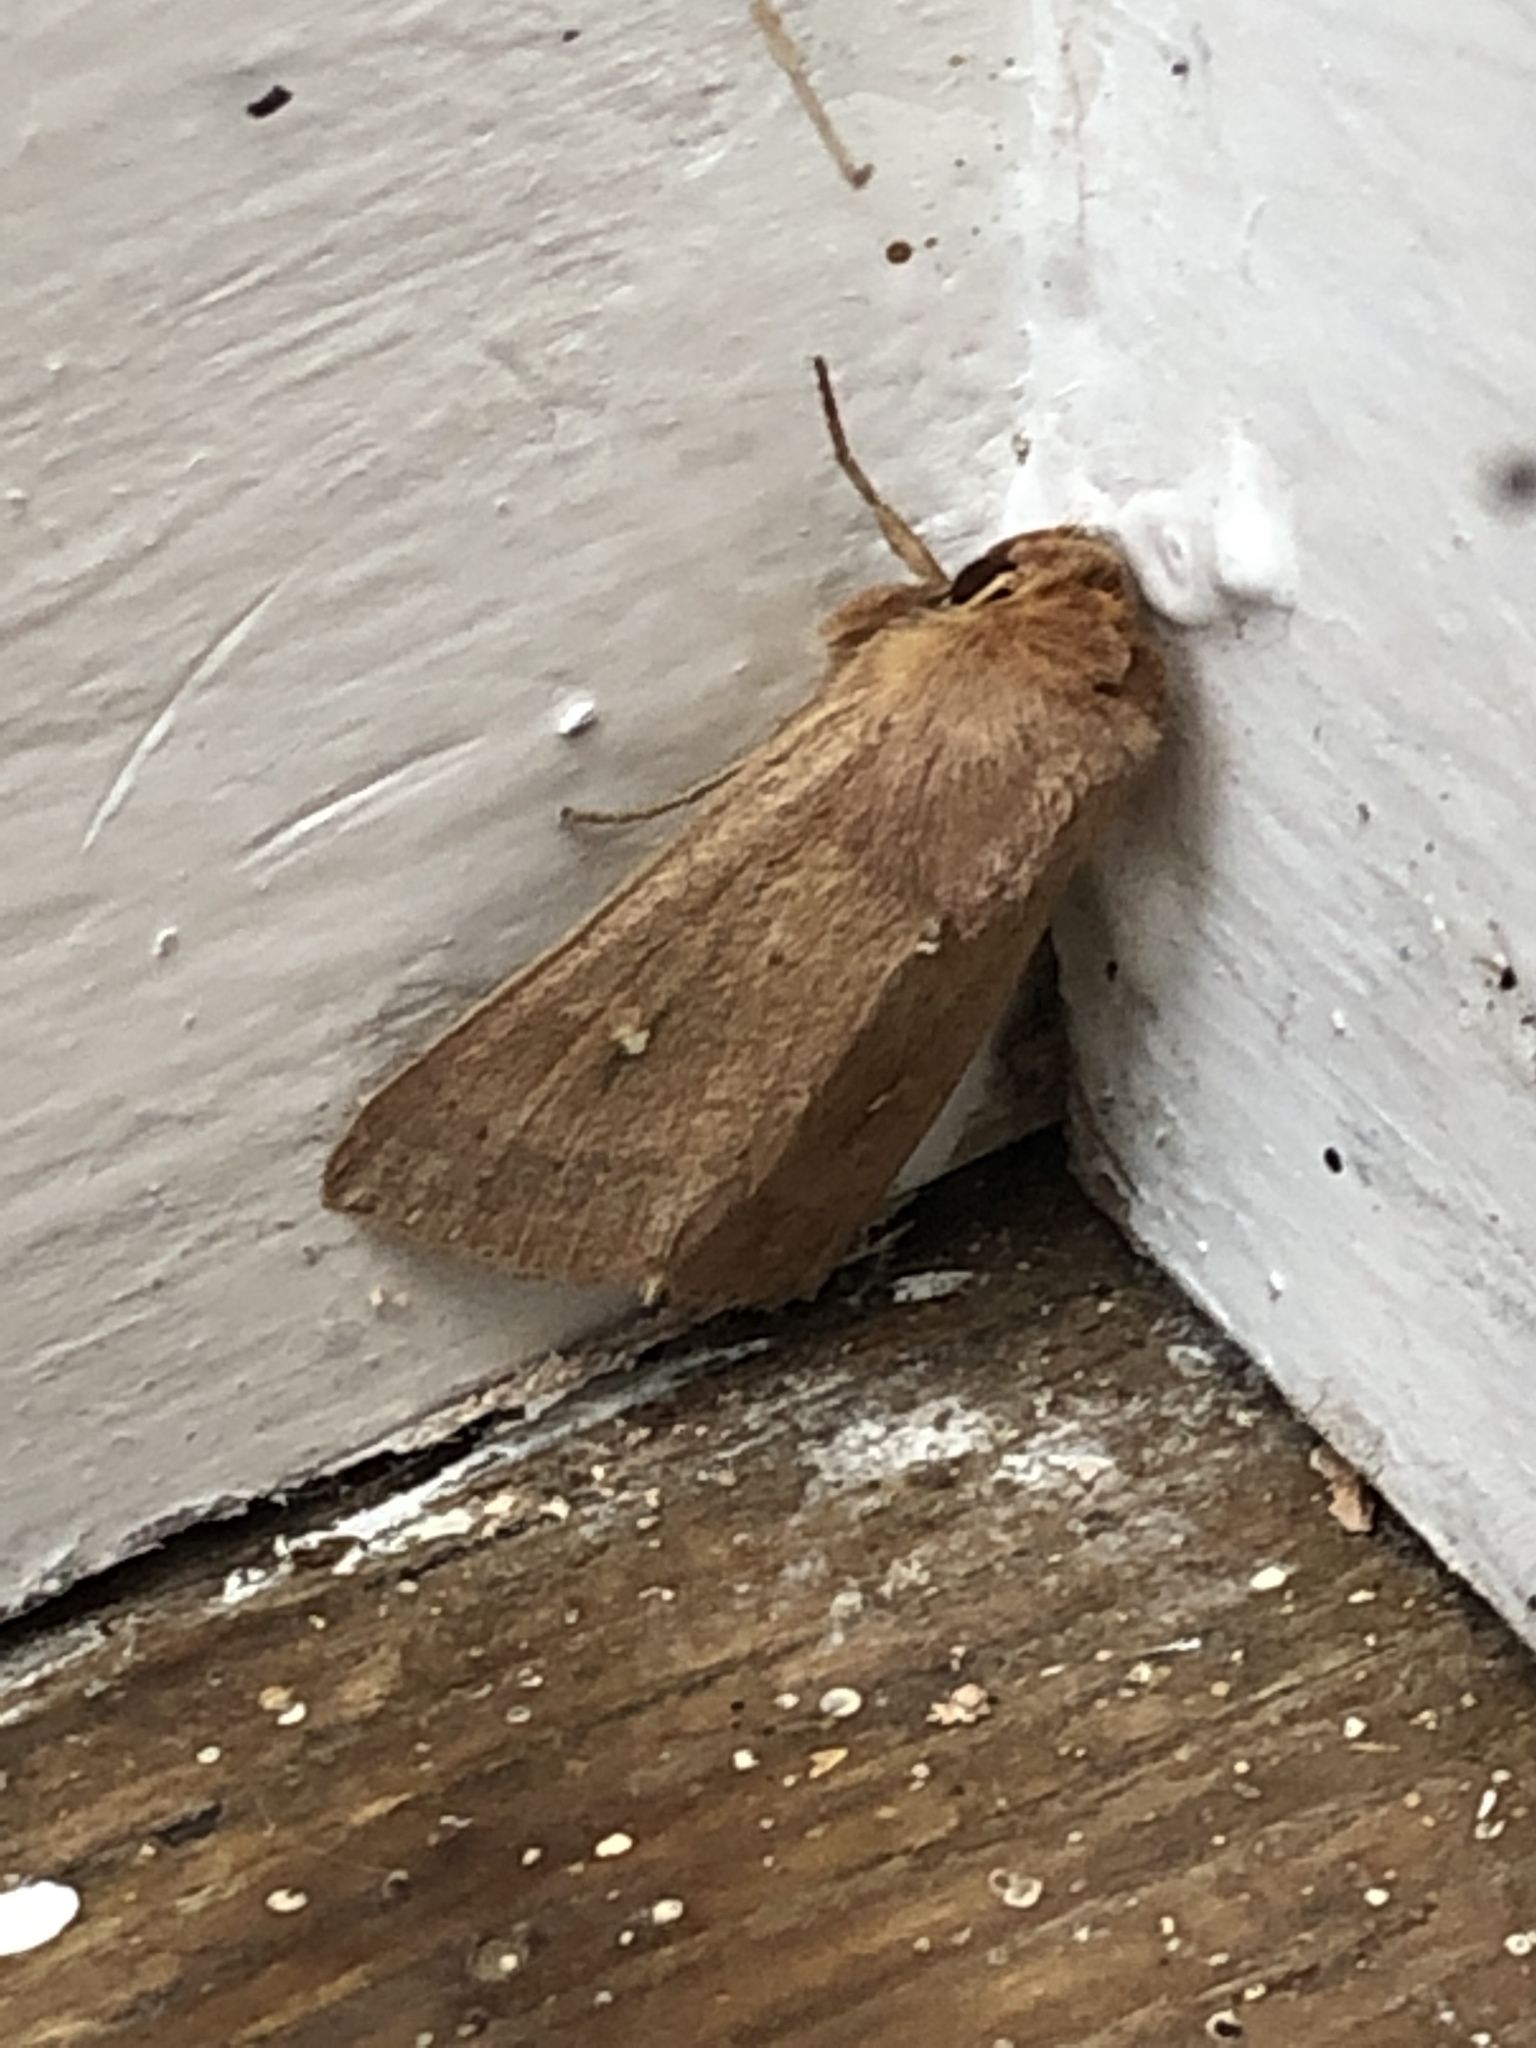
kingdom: Animalia
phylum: Arthropoda
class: Insecta
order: Lepidoptera
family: Noctuidae
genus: Mythimna
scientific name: Mythimna ferrago
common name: Clay
